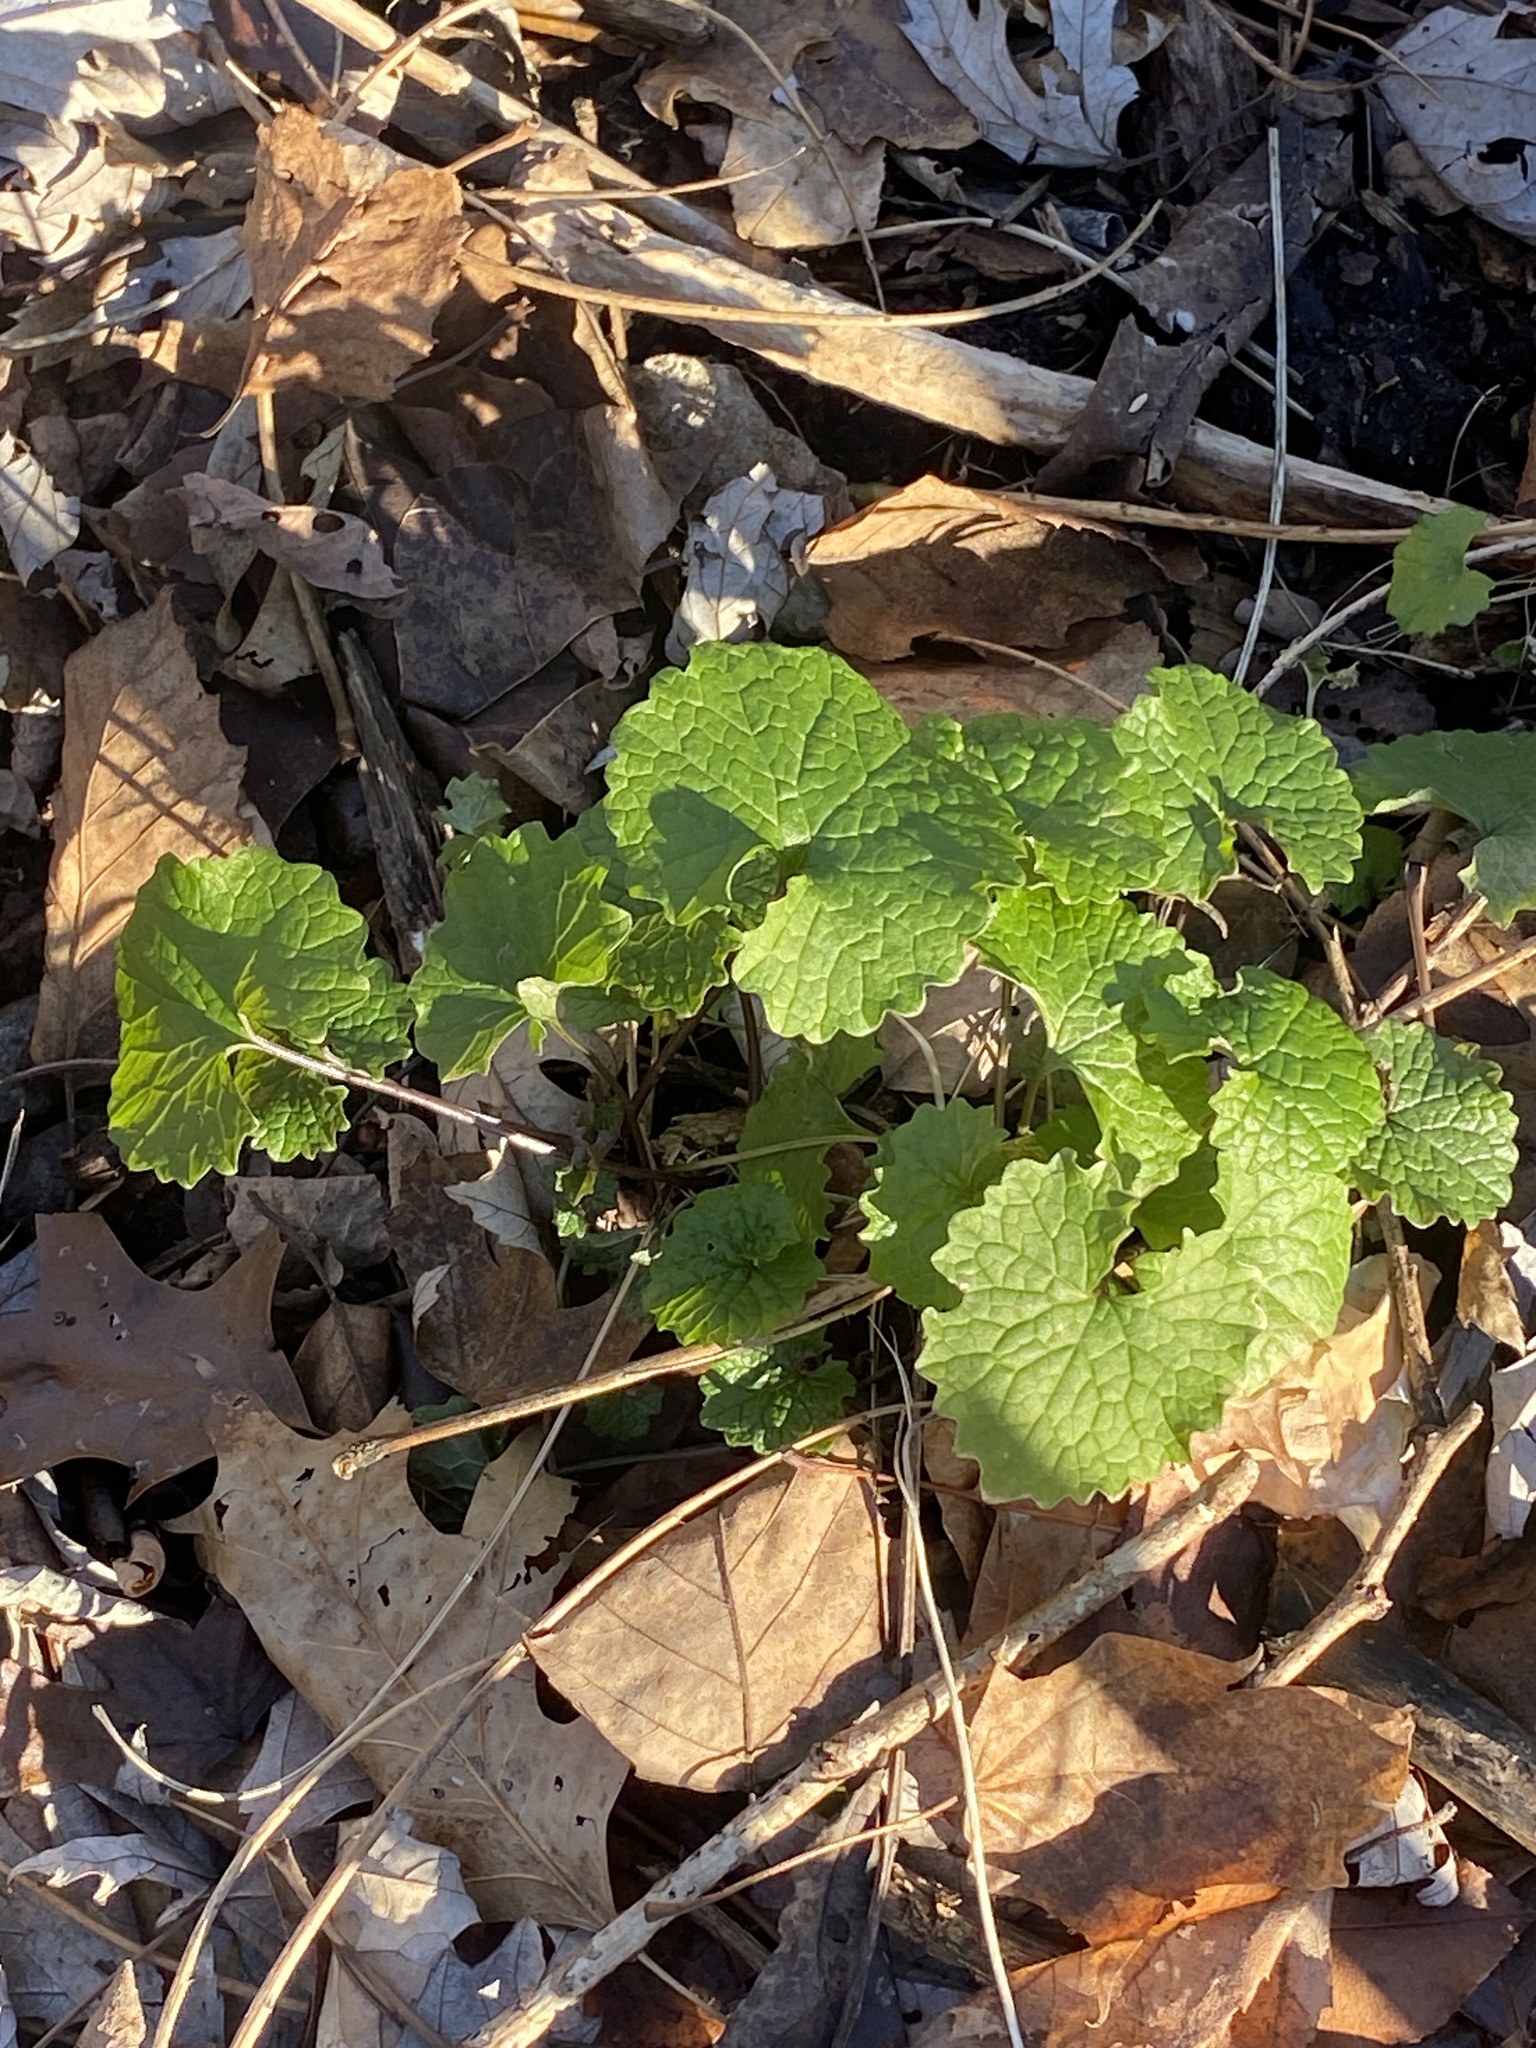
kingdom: Plantae
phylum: Tracheophyta
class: Magnoliopsida
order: Brassicales
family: Brassicaceae
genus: Alliaria
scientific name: Alliaria petiolata
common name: Garlic mustard
